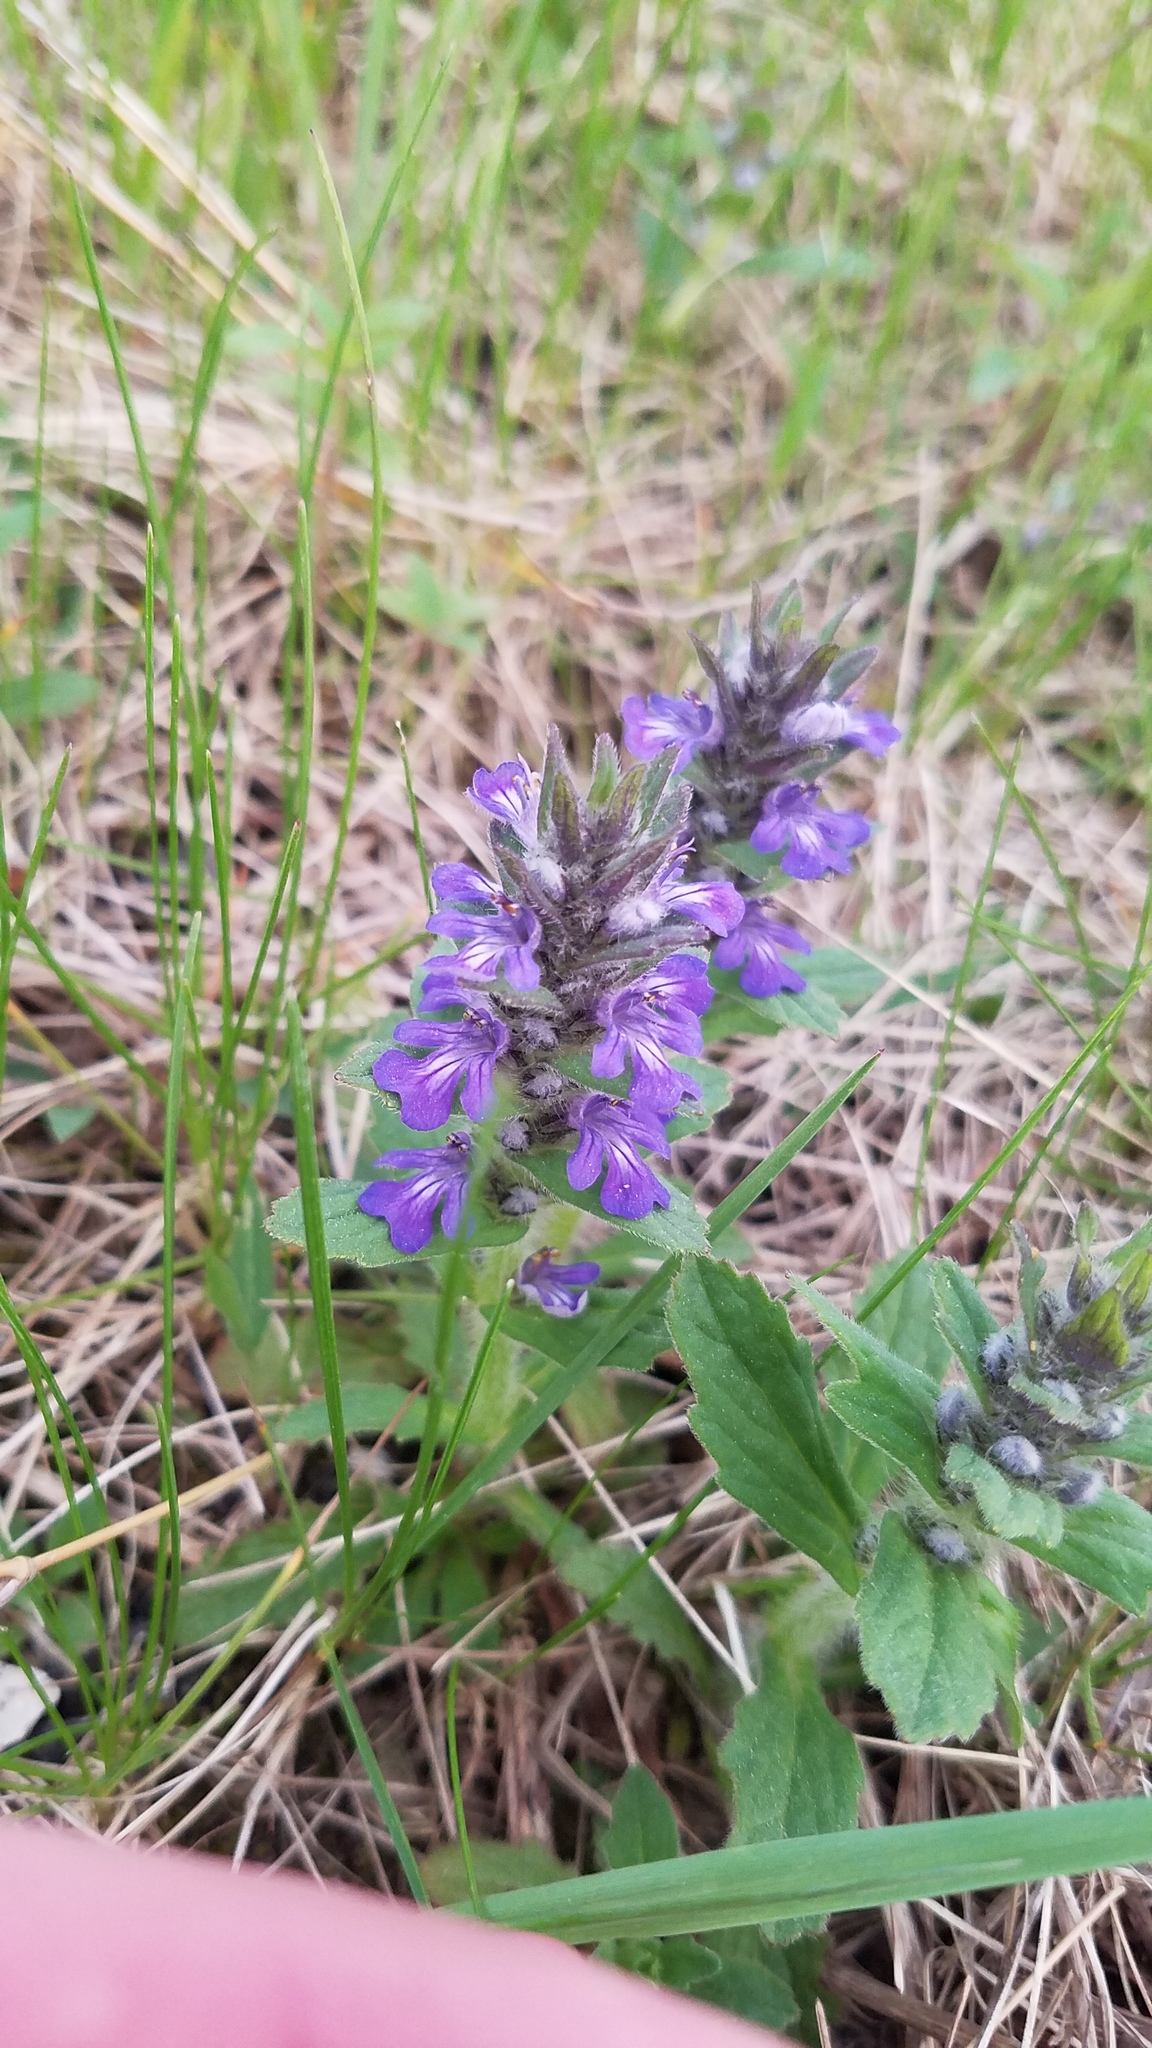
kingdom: Plantae
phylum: Tracheophyta
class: Magnoliopsida
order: Lamiales
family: Lamiaceae
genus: Ajuga
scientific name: Ajuga genevensis
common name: Blue bugle
